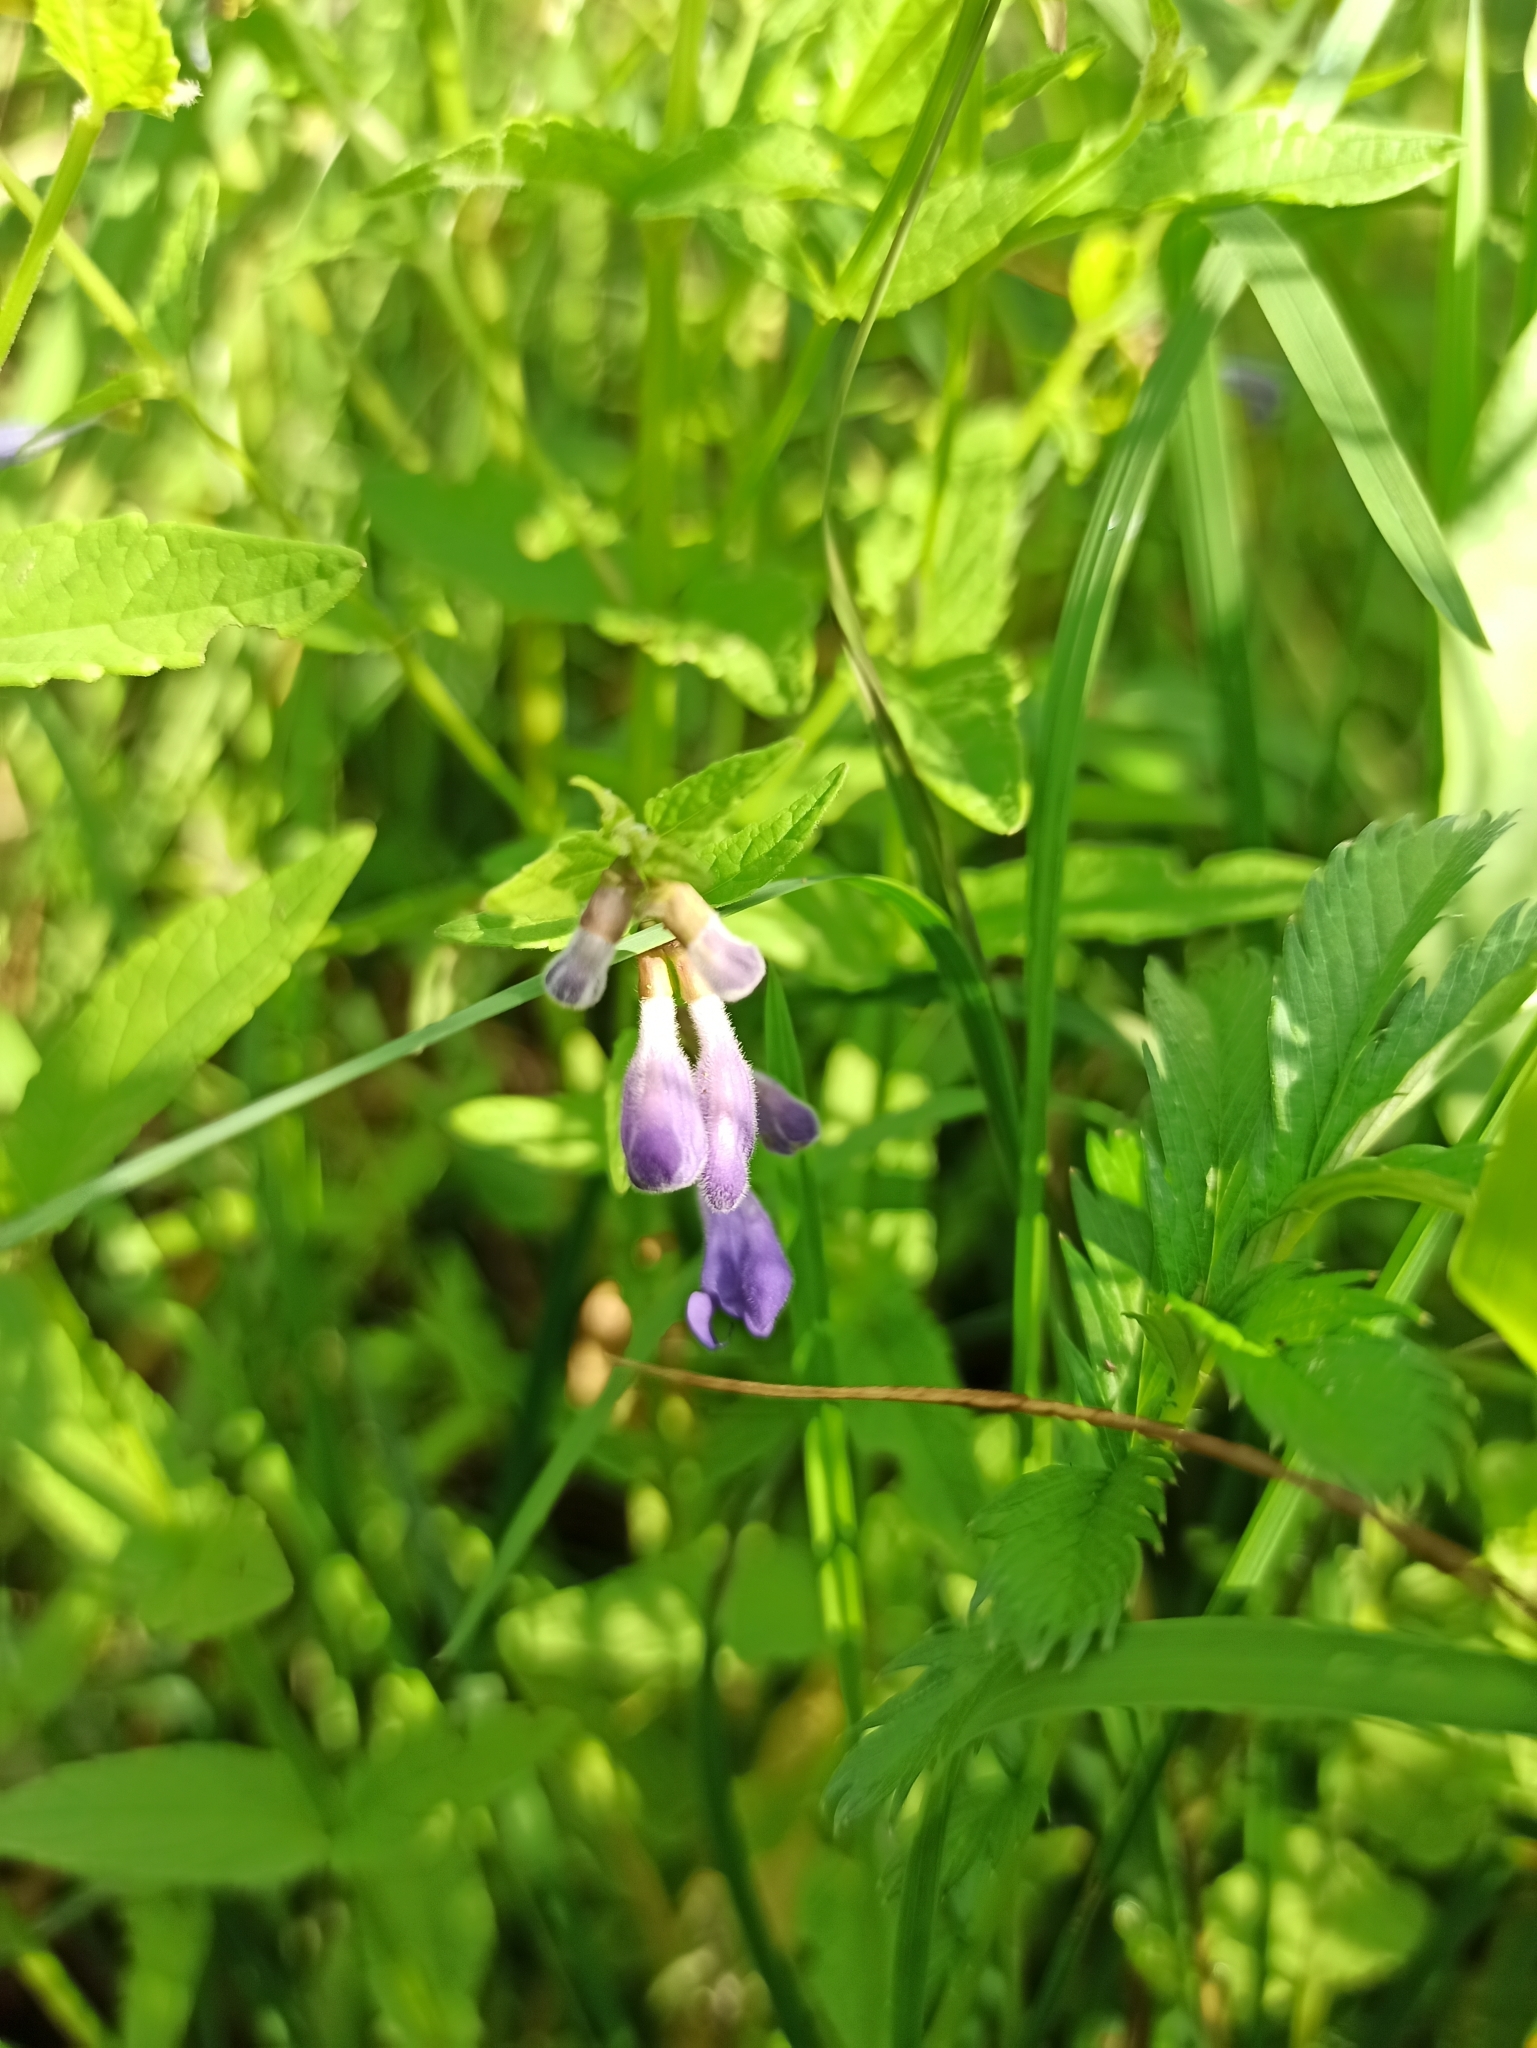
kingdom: Plantae
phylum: Tracheophyta
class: Magnoliopsida
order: Lamiales
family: Lamiaceae
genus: Scutellaria
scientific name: Scutellaria galericulata
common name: Skullcap
